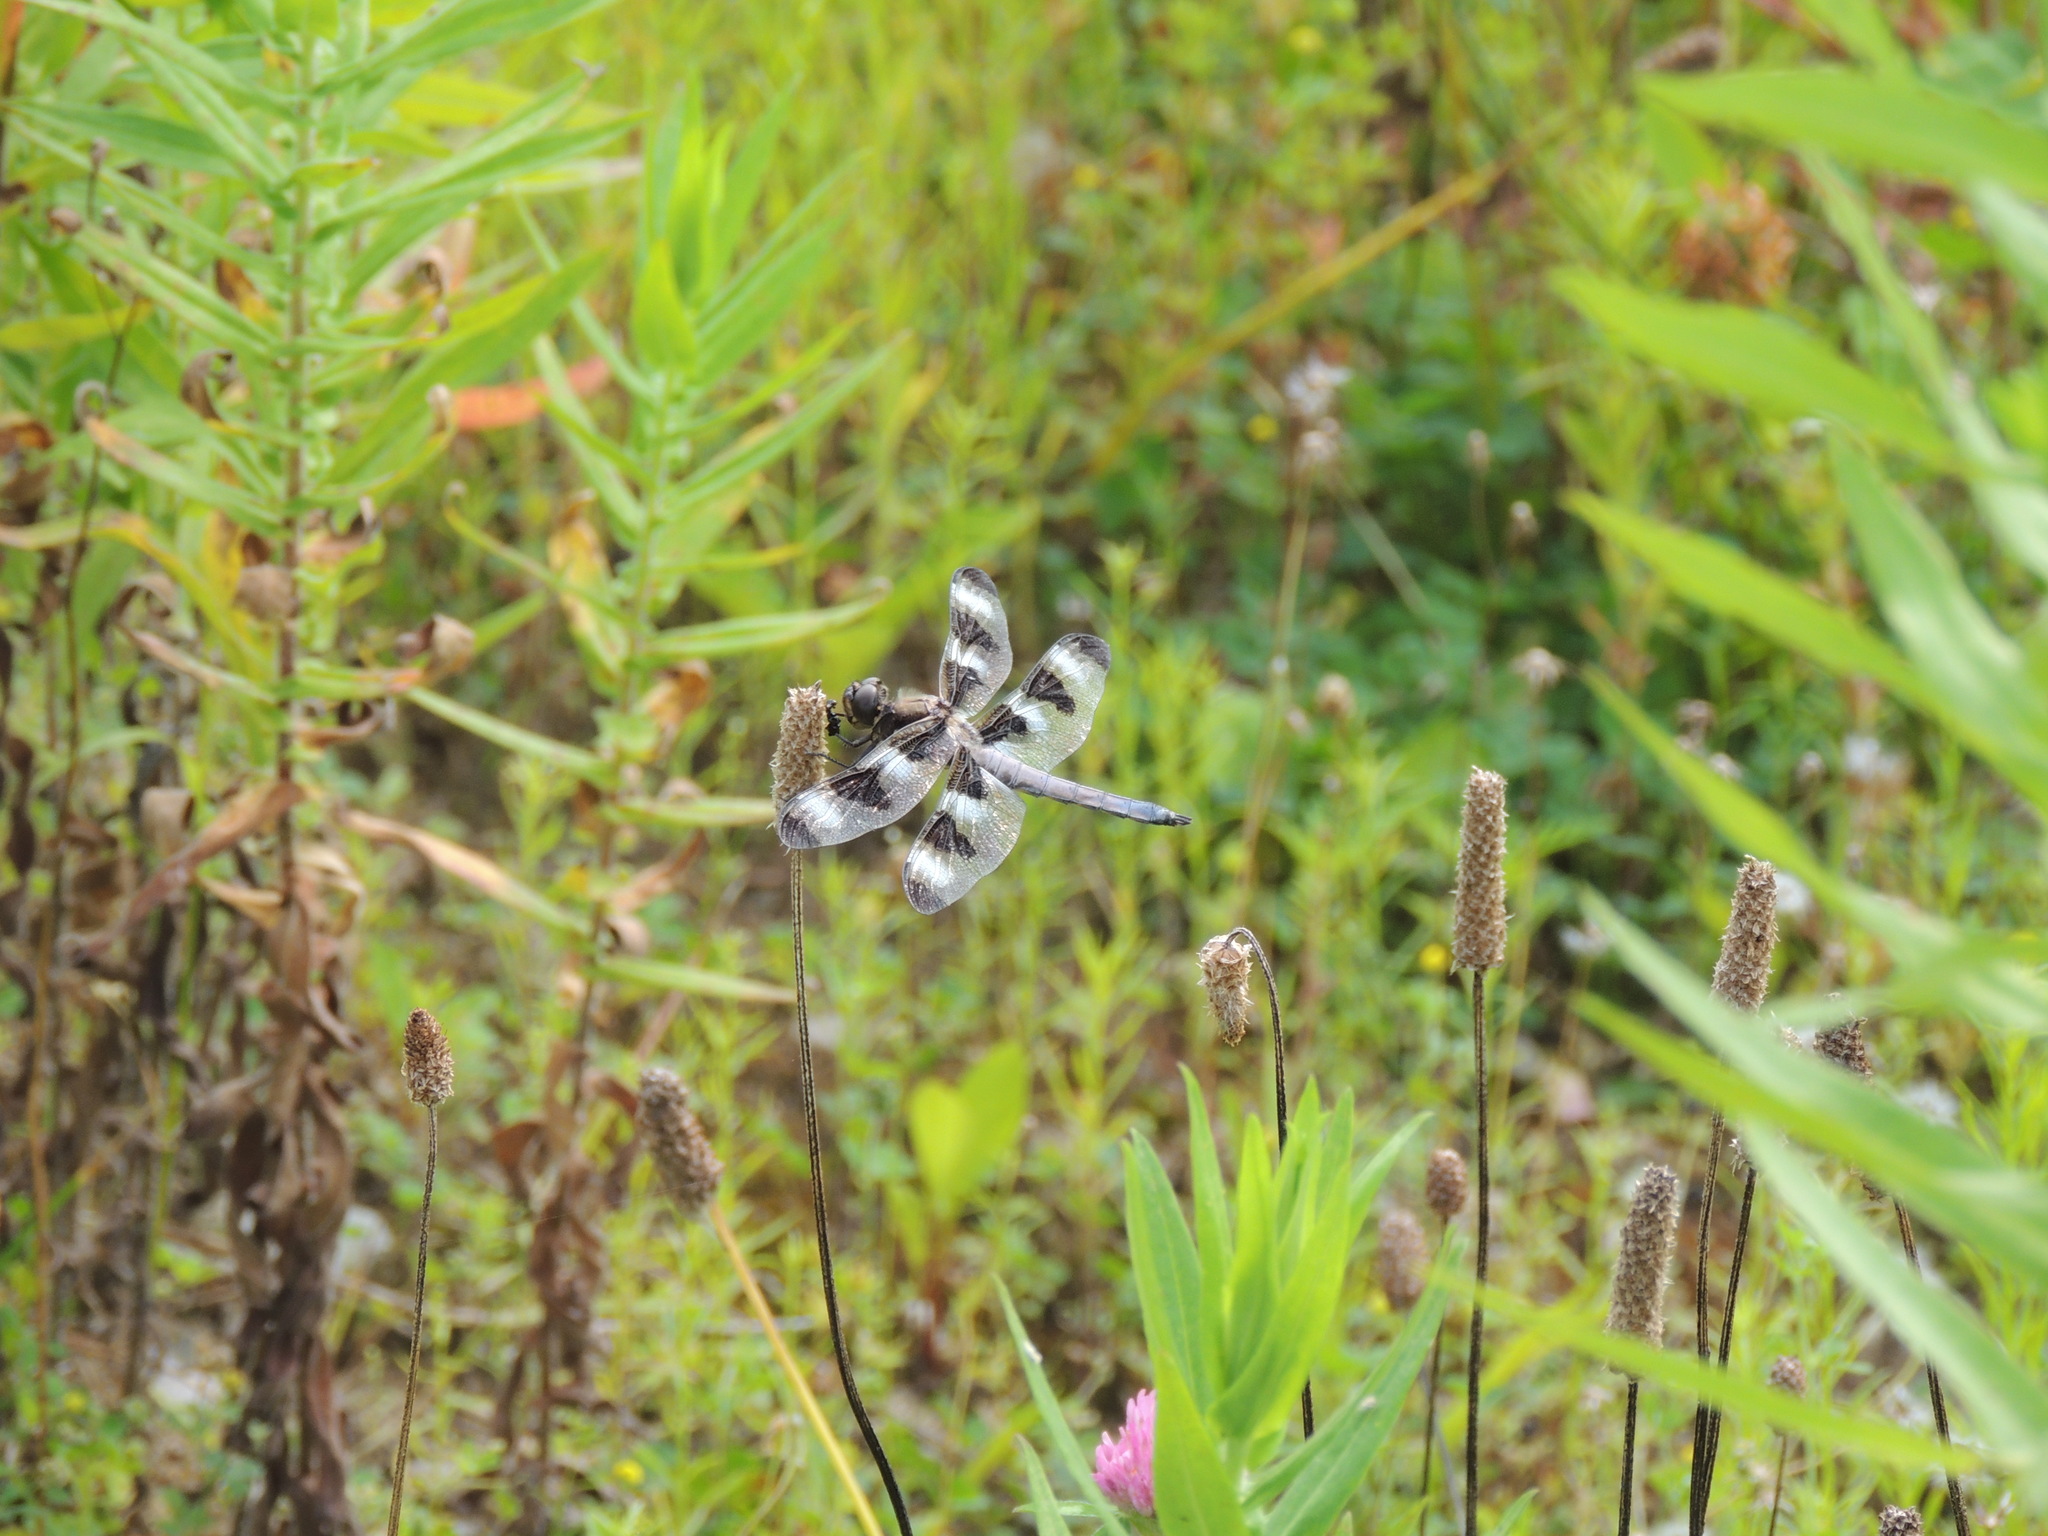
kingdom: Animalia
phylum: Arthropoda
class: Insecta
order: Odonata
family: Libellulidae
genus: Libellula
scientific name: Libellula pulchella
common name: Twelve-spotted skimmer
